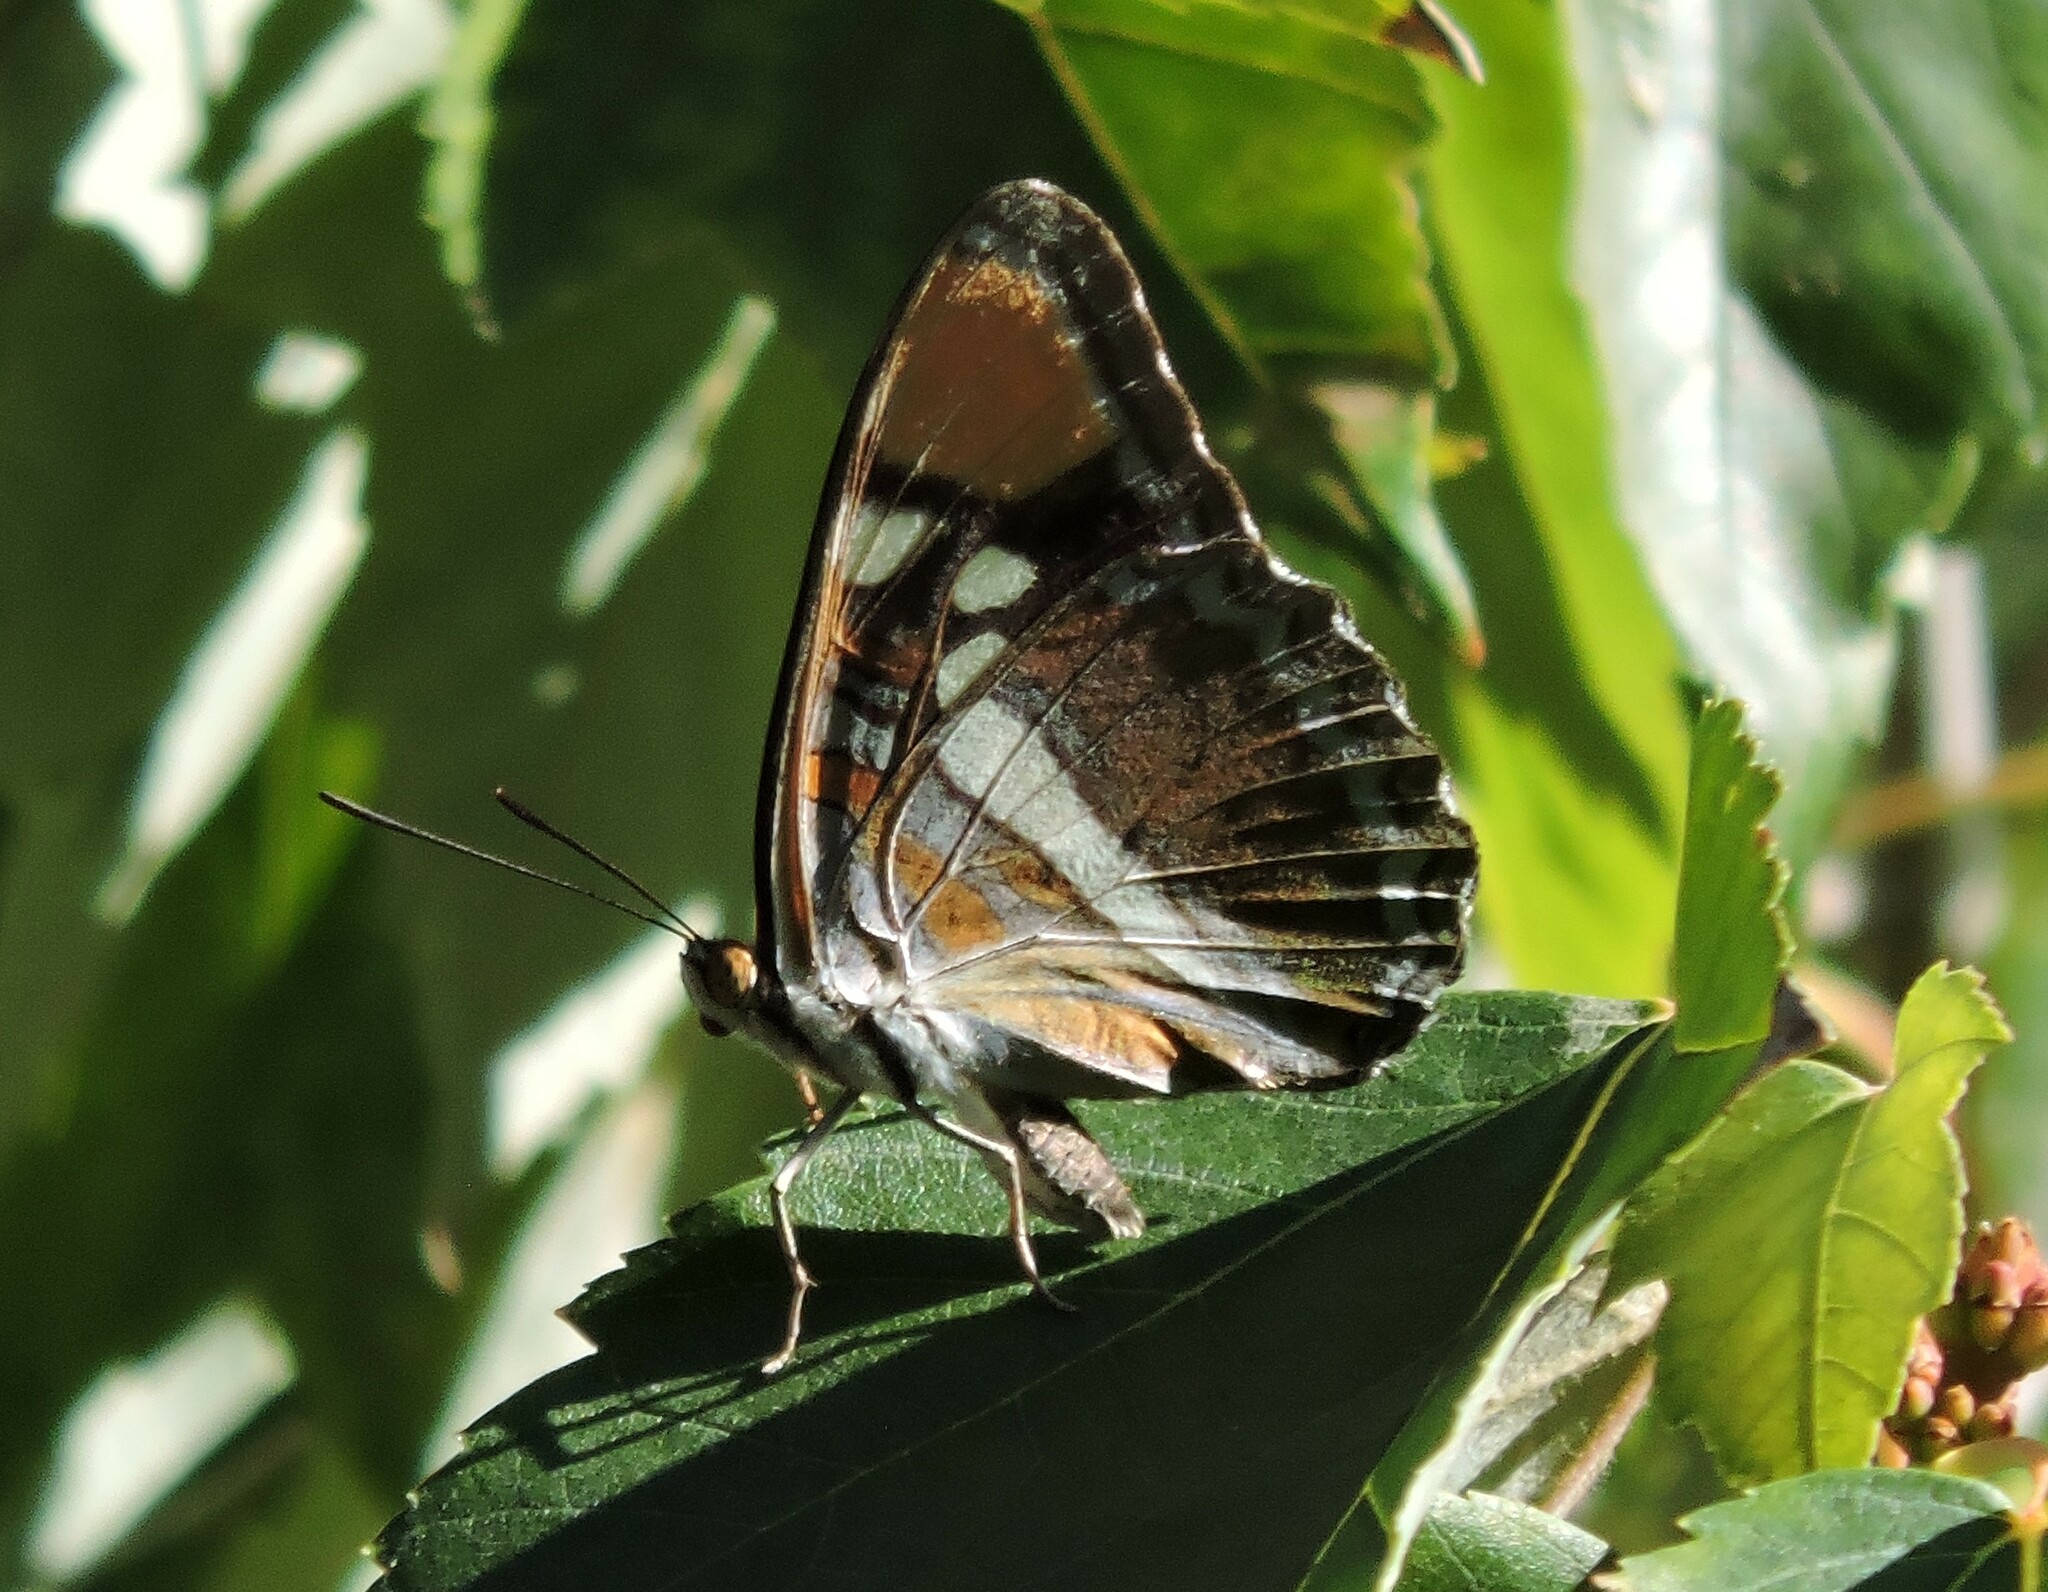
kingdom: Animalia
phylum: Arthropoda
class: Insecta
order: Lepidoptera
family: Nymphalidae
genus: Limenitis
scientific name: Limenitis bredowii
